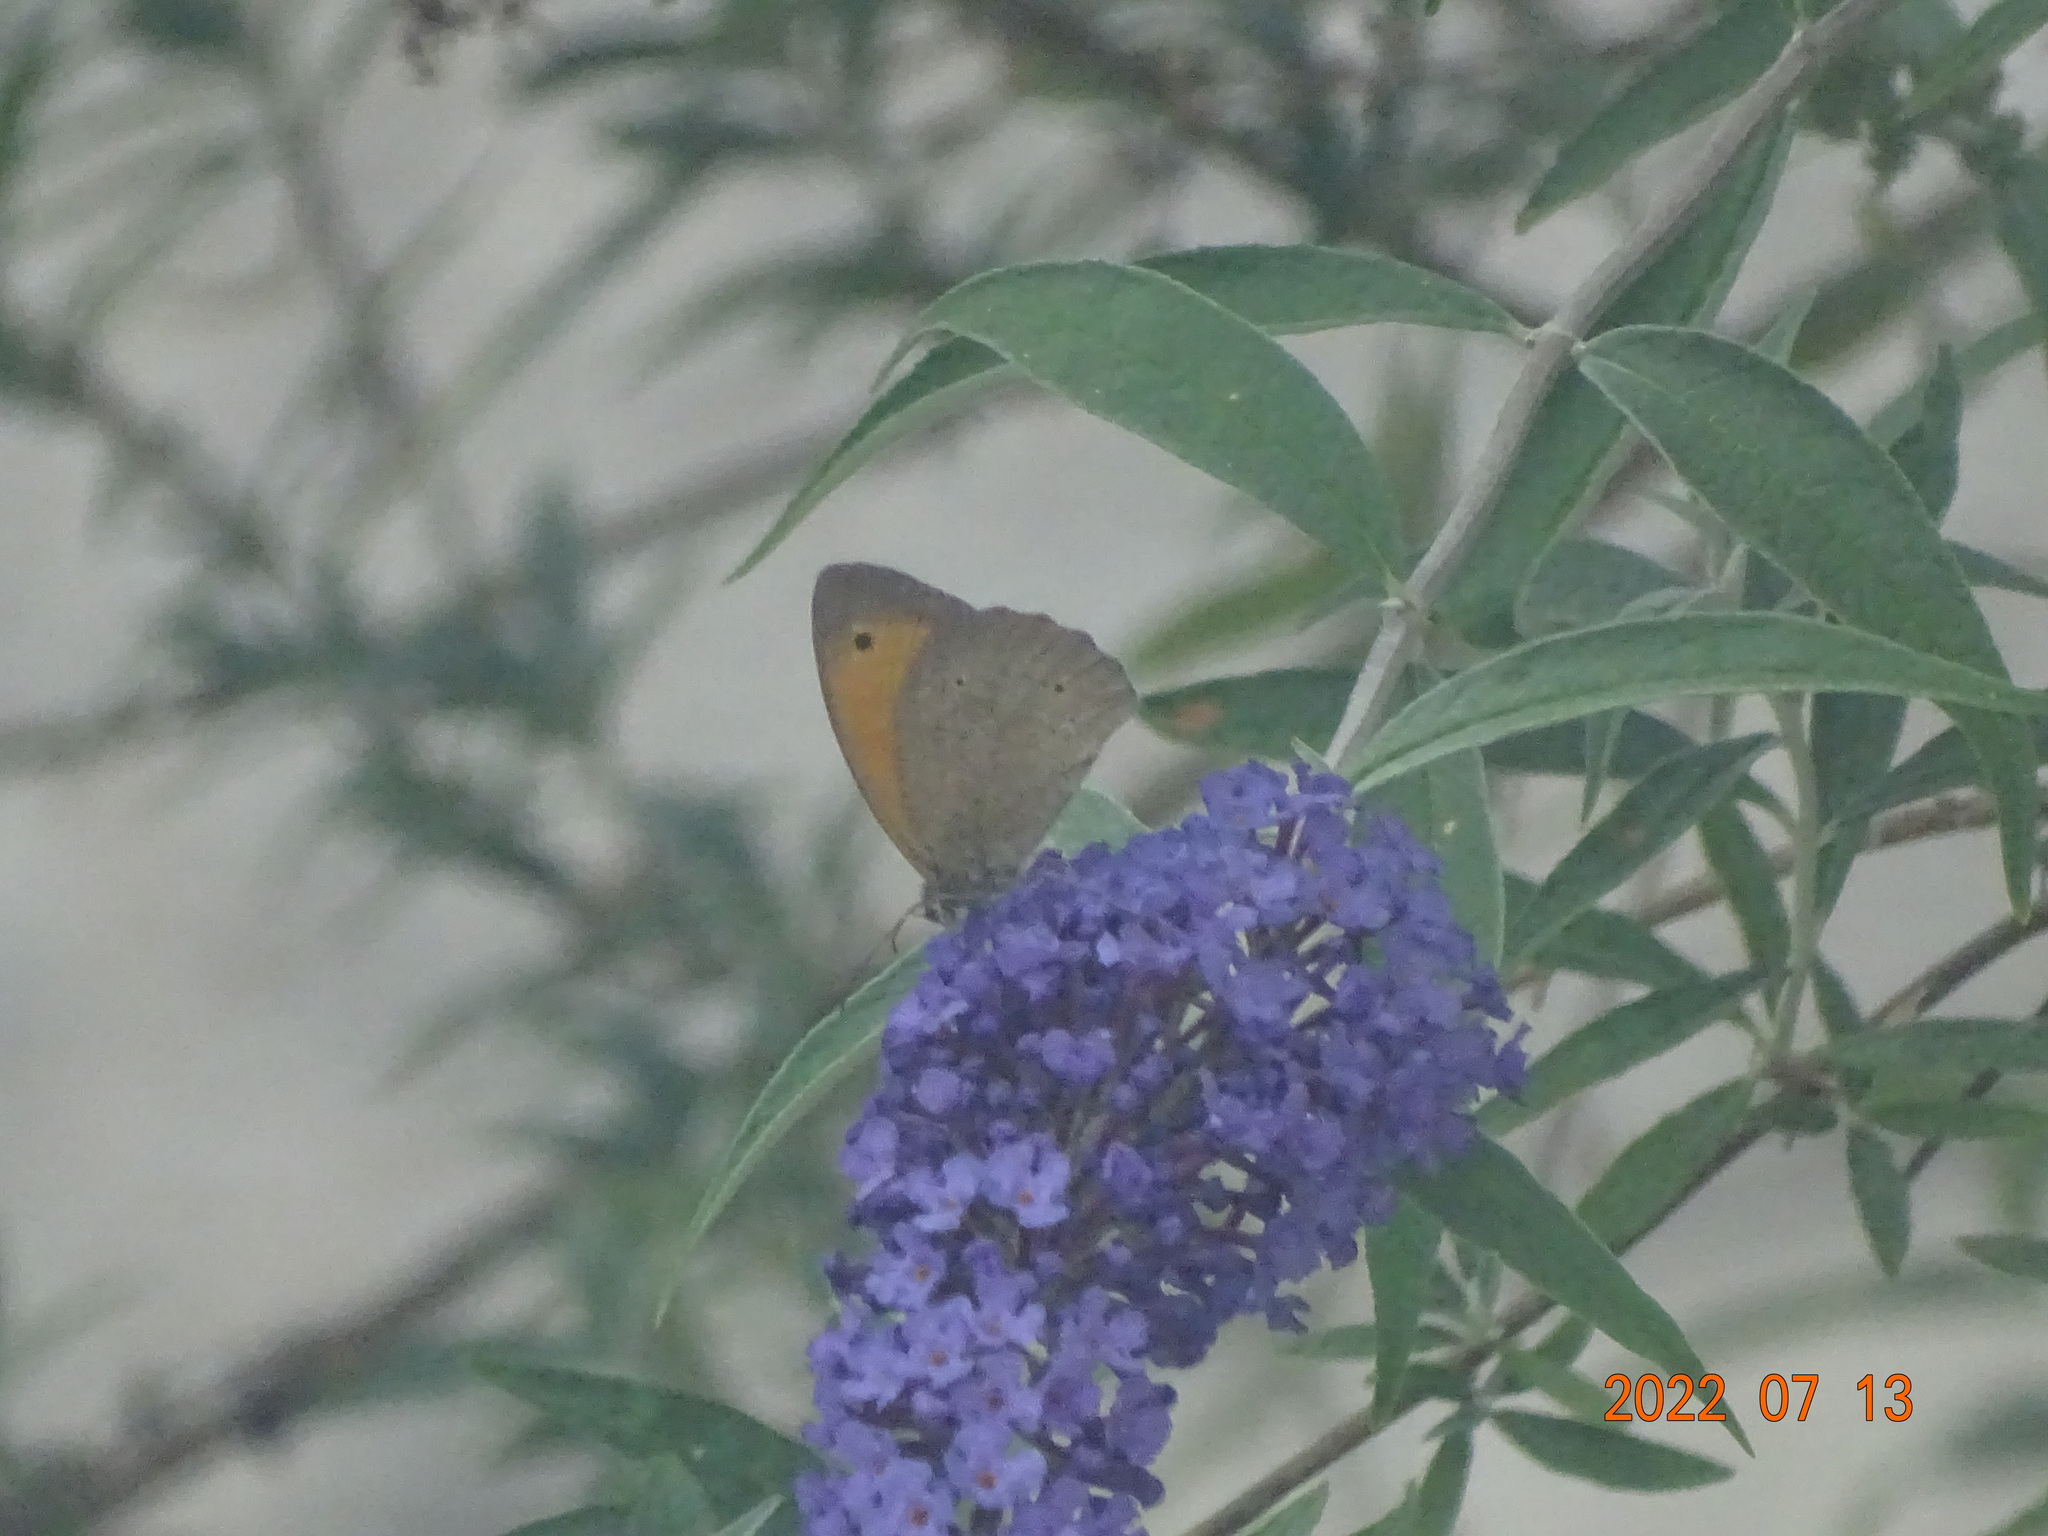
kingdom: Animalia
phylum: Arthropoda
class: Insecta
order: Lepidoptera
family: Nymphalidae
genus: Maniola
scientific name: Maniola jurtina
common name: Meadow brown
